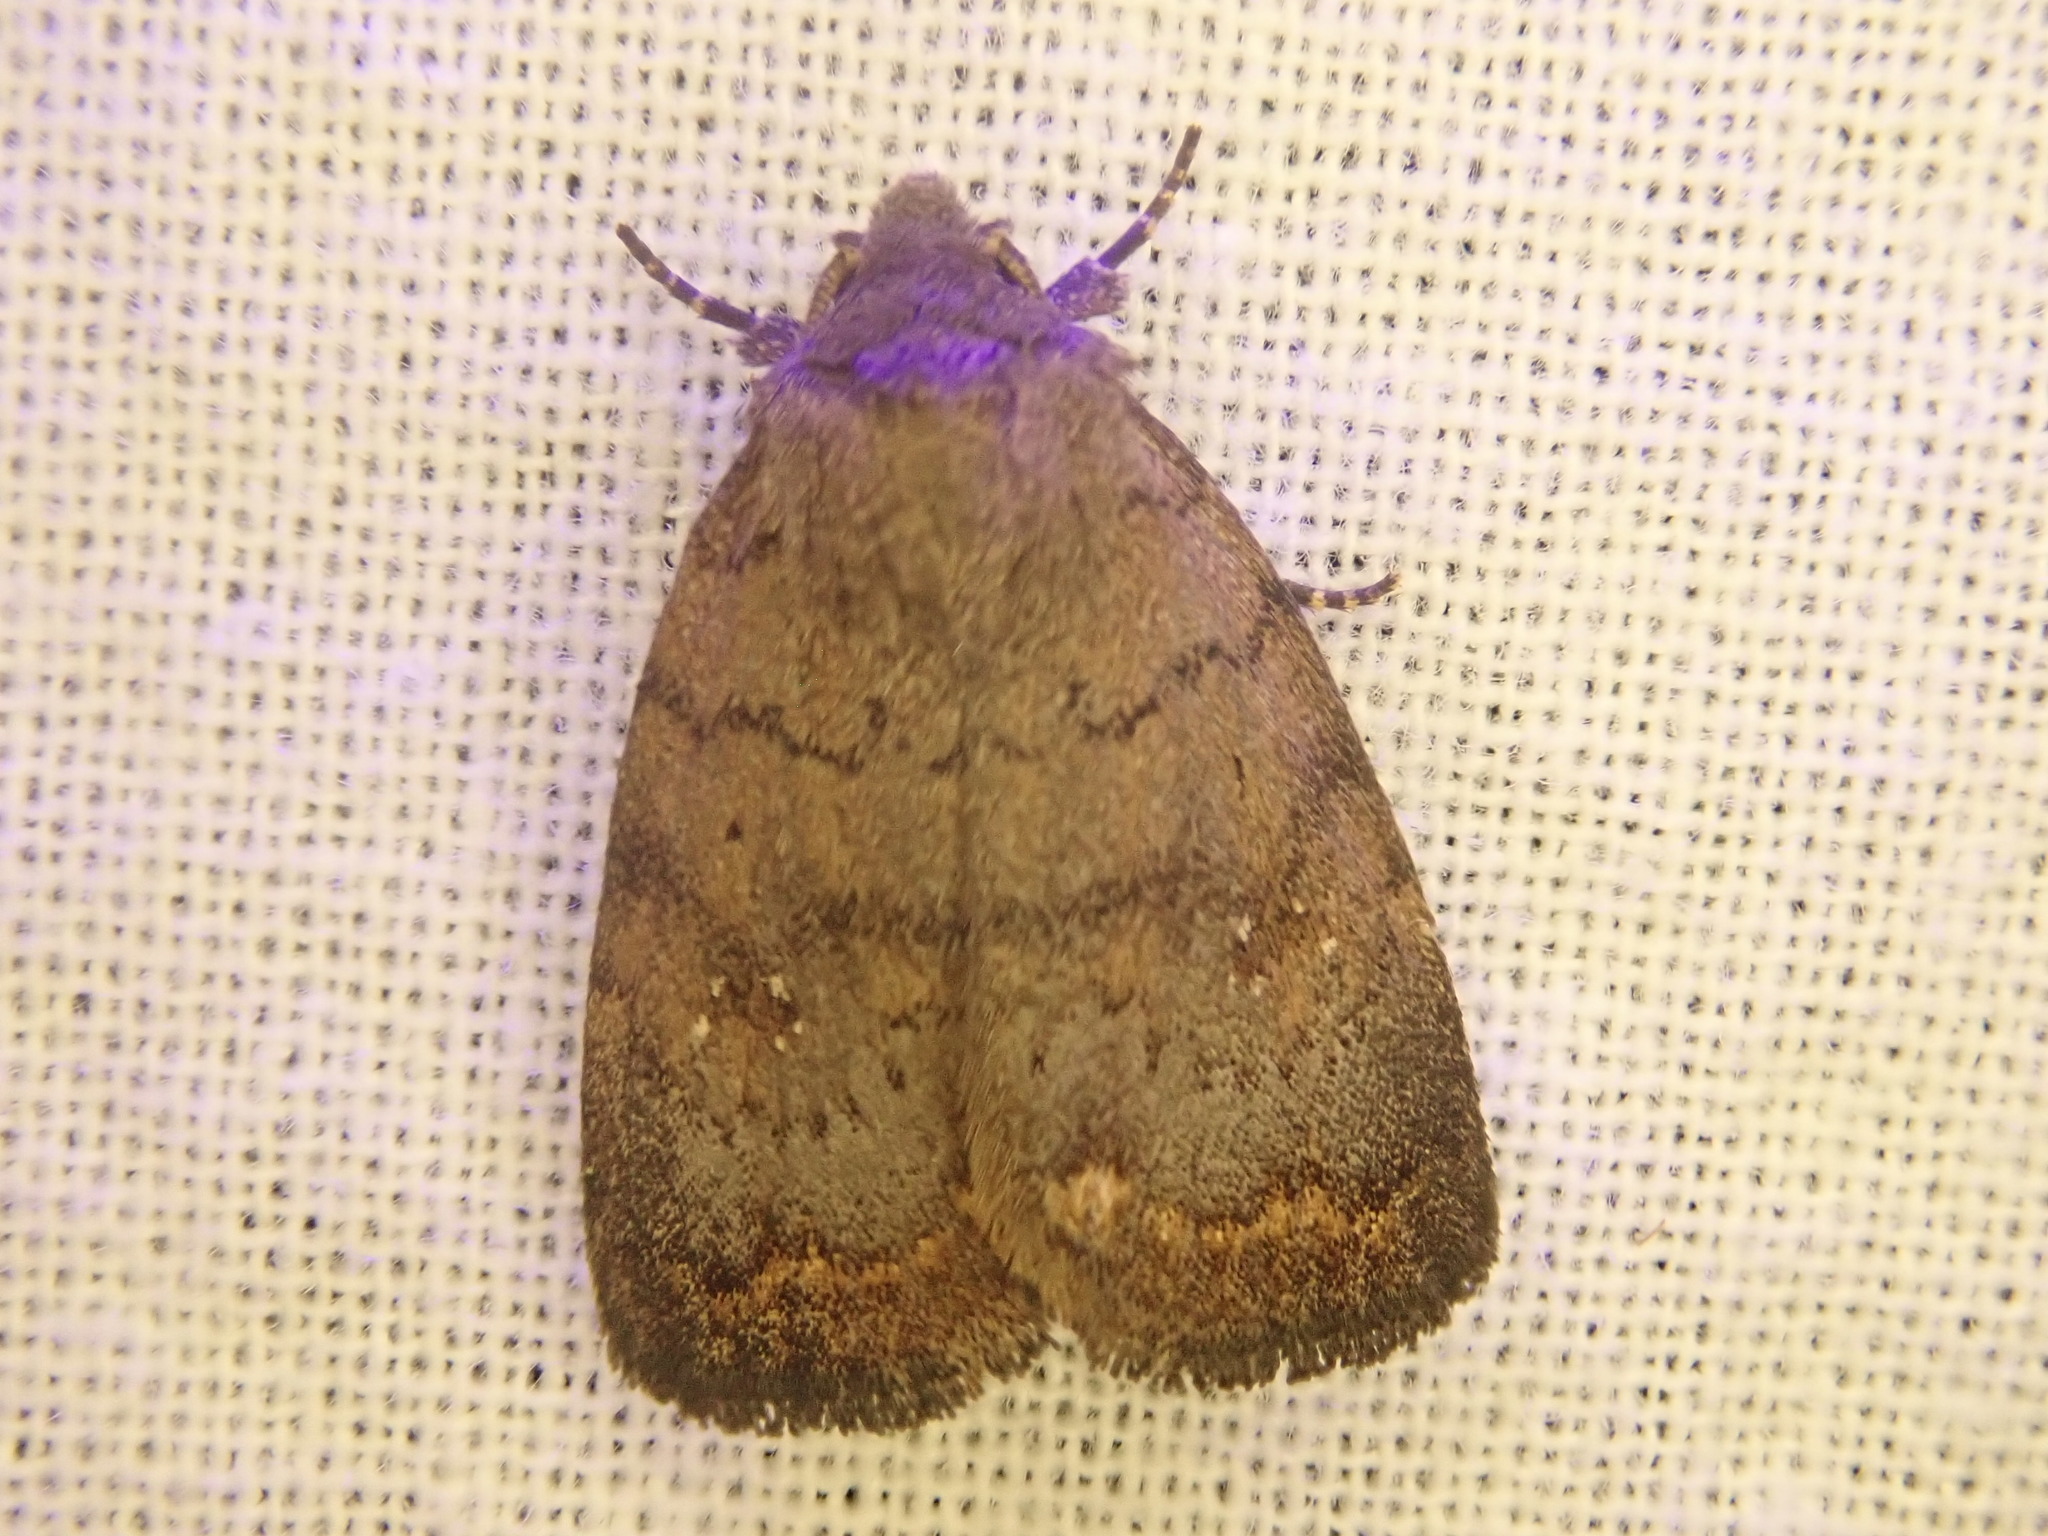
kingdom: Animalia
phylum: Arthropoda
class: Insecta
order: Lepidoptera
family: Noctuidae
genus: Athetis
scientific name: Athetis tarda
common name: Slowpoke moth
